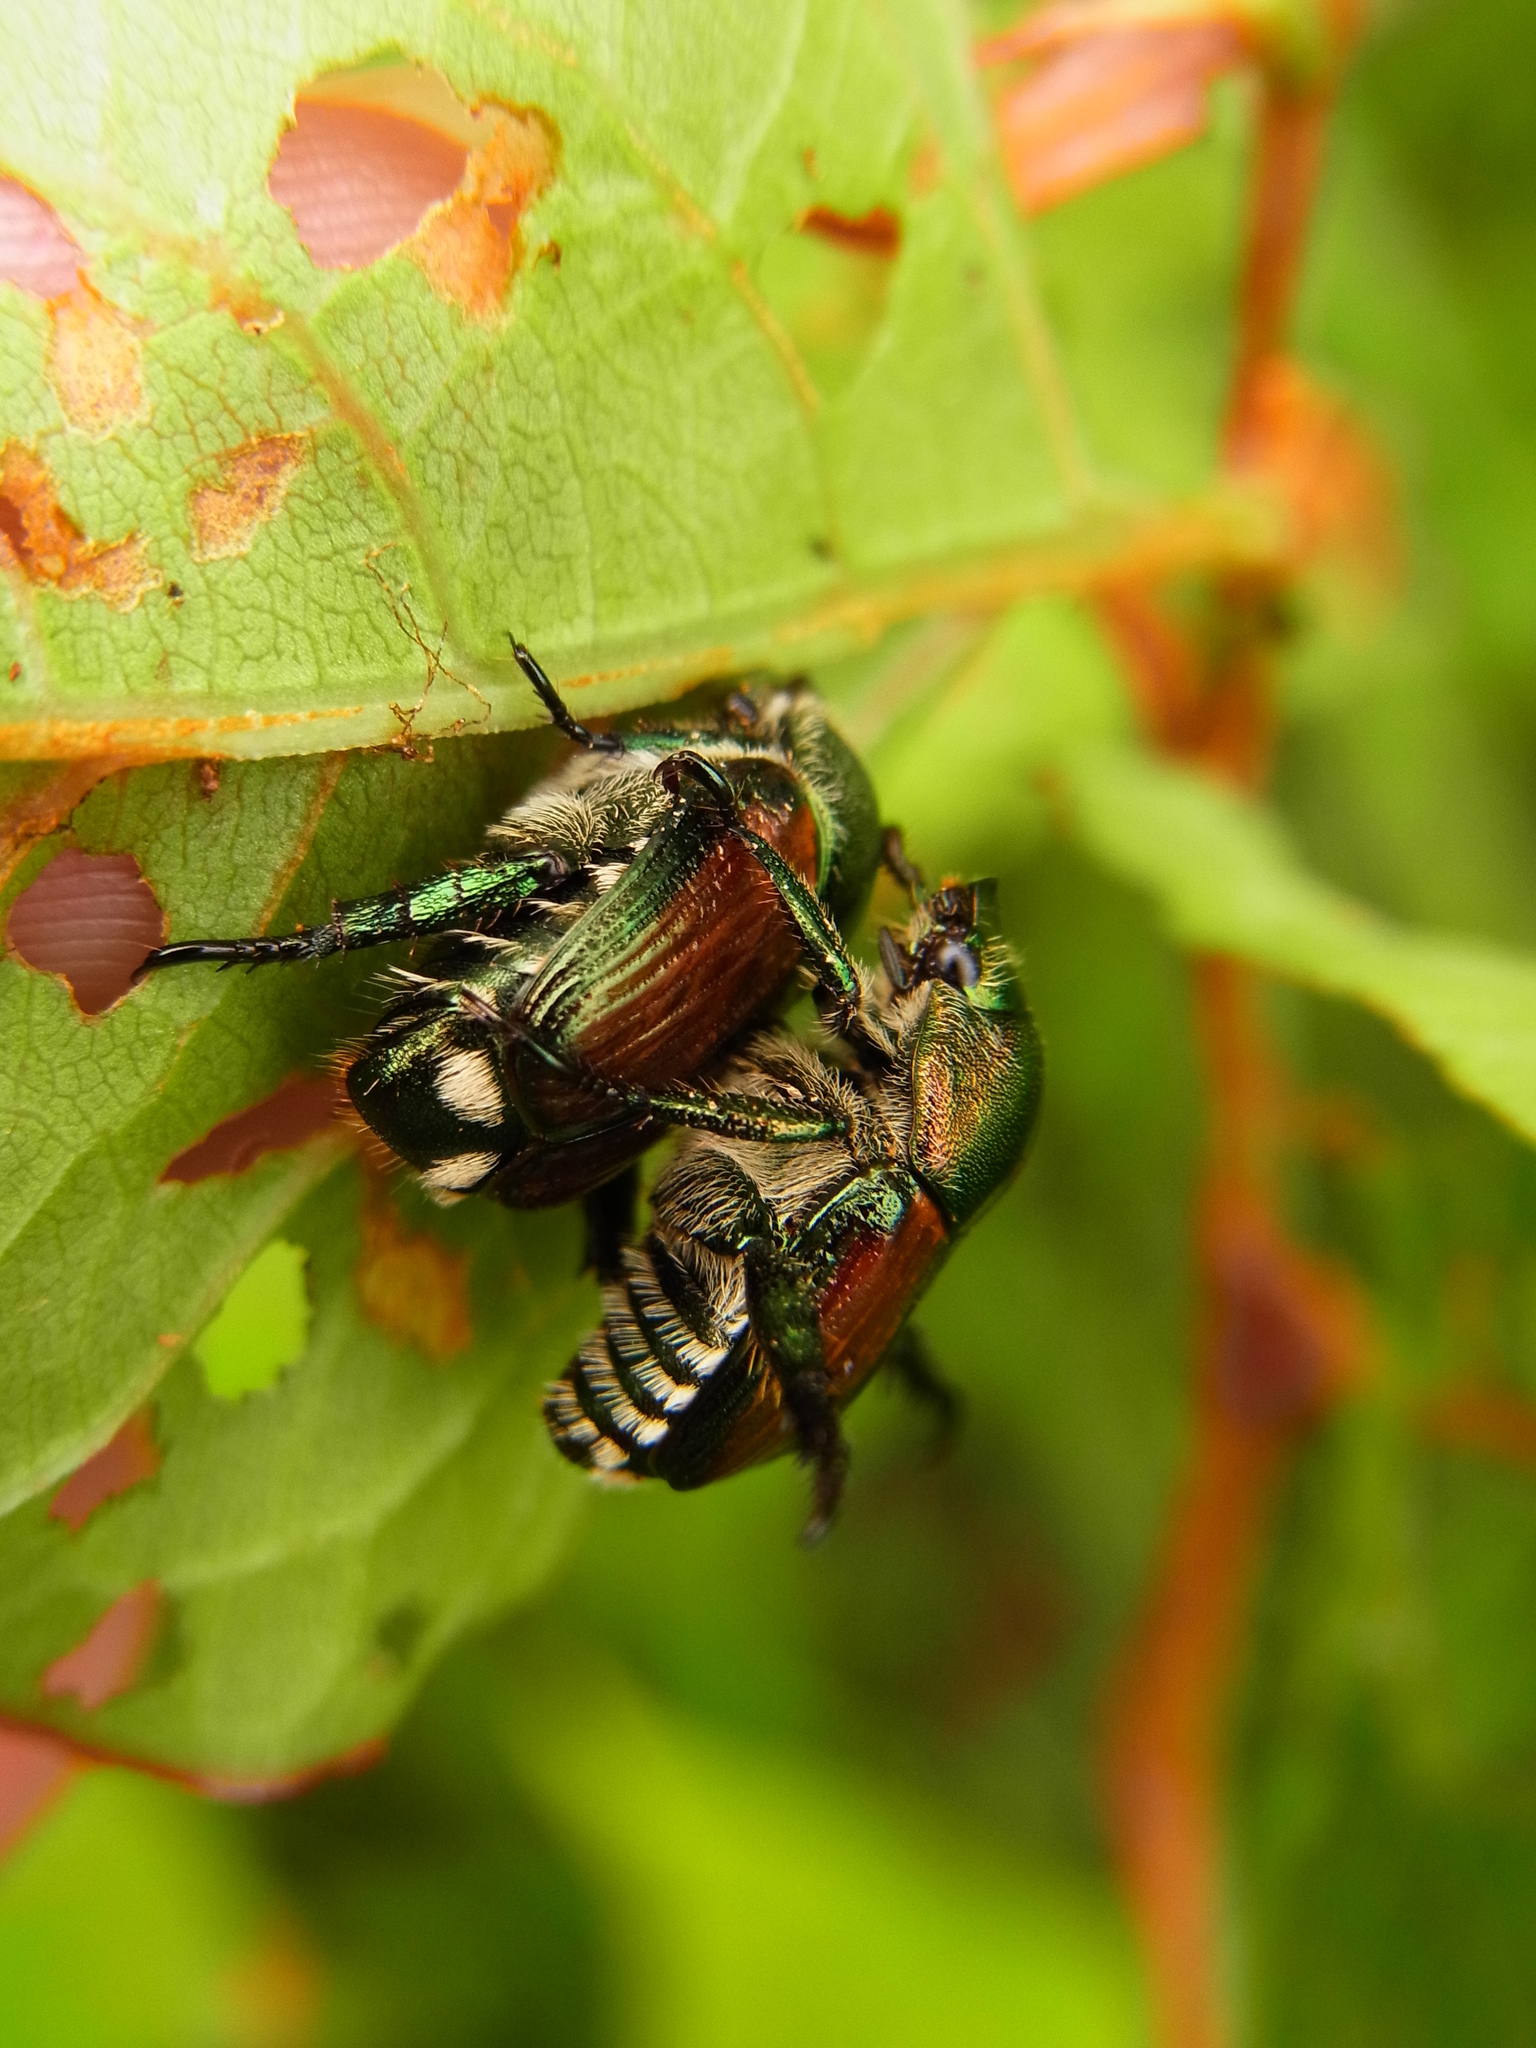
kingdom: Animalia
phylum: Arthropoda
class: Insecta
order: Coleoptera
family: Scarabaeidae
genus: Popillia
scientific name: Popillia japonica
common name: Japanese beetle
